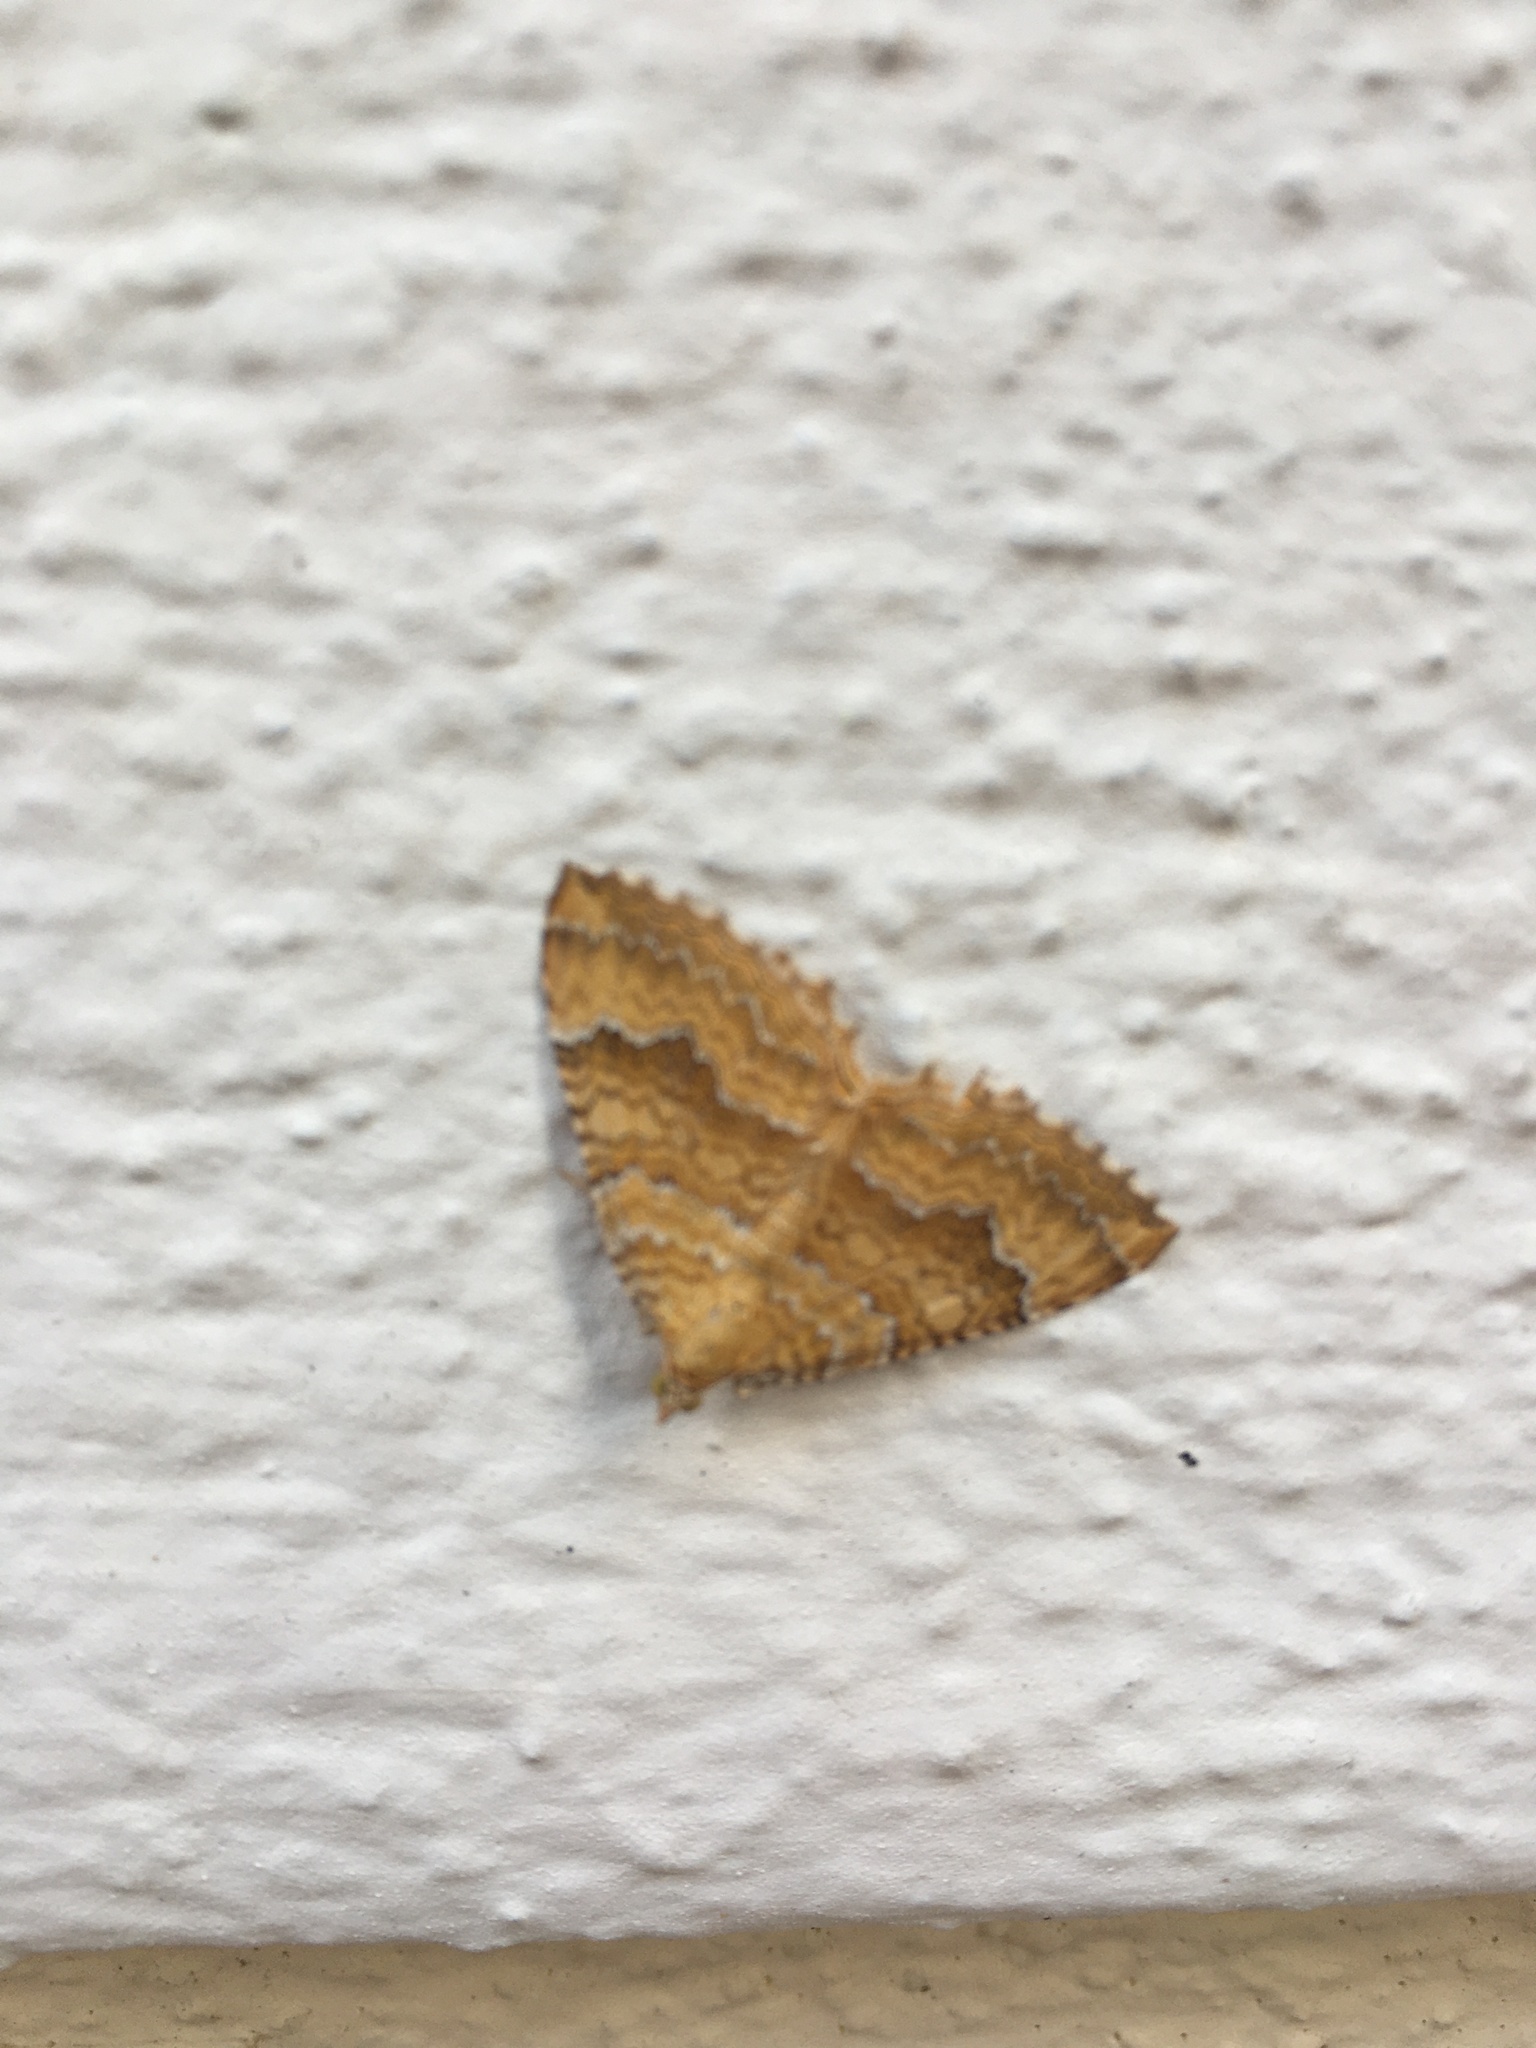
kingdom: Animalia
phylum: Arthropoda
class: Insecta
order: Lepidoptera
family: Geometridae
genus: Camptogramma
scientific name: Camptogramma bilineata
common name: Yellow shell
